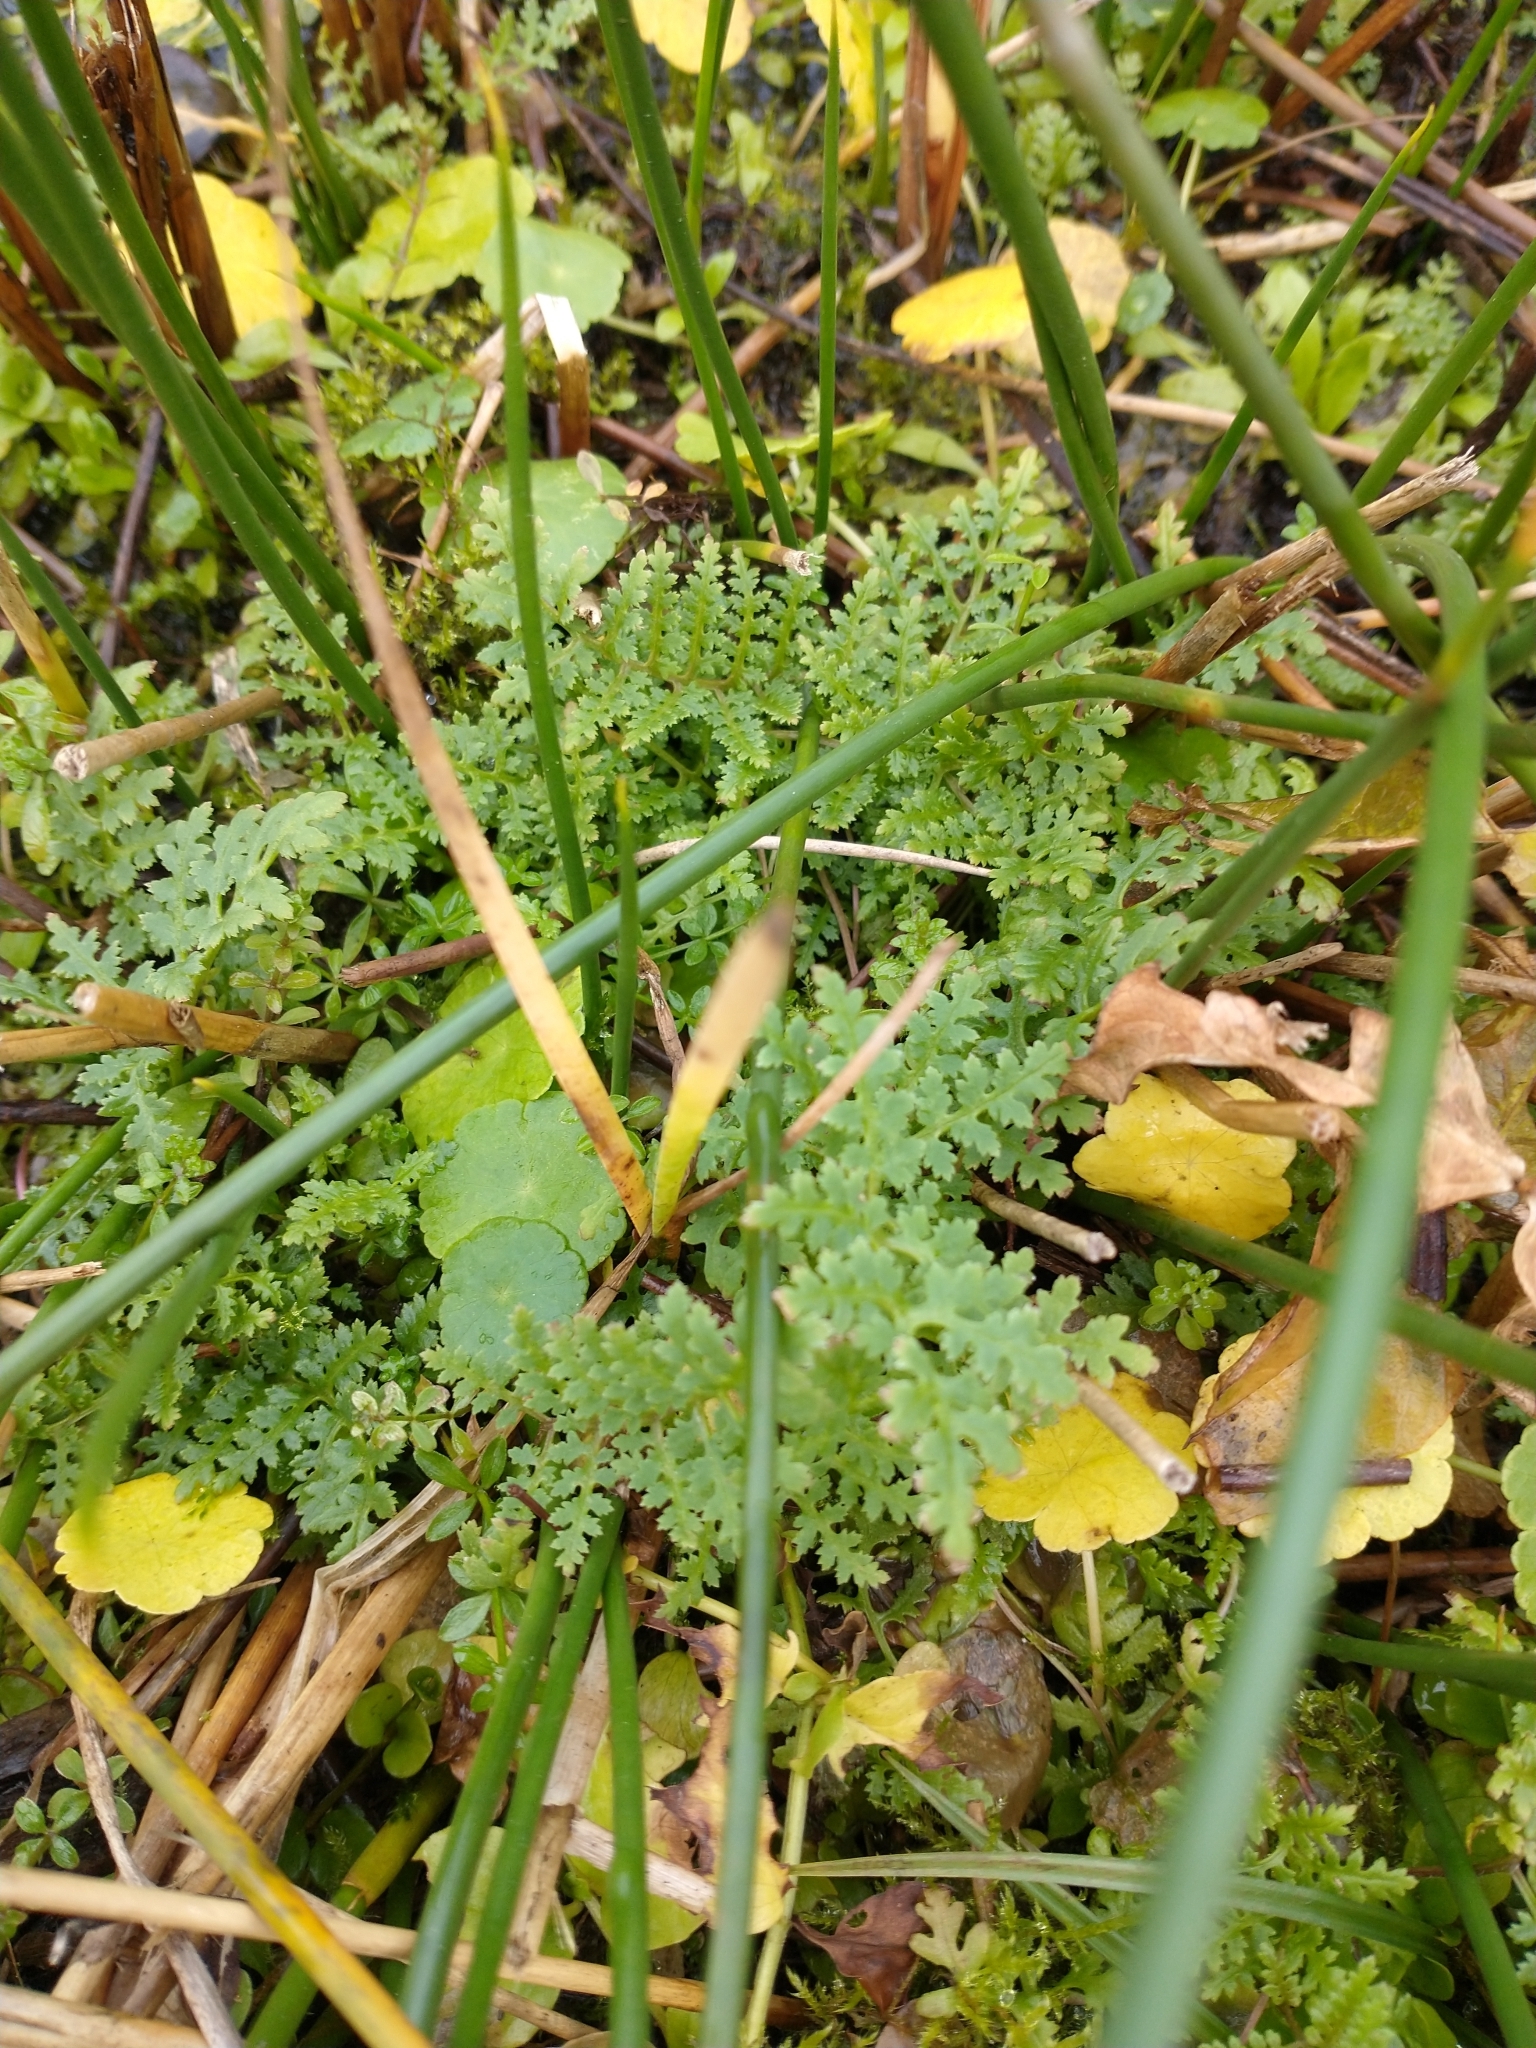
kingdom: Plantae
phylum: Tracheophyta
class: Magnoliopsida
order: Lamiales
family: Orobanchaceae
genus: Pedicularis
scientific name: Pedicularis palustris
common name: Marsh lousewort
